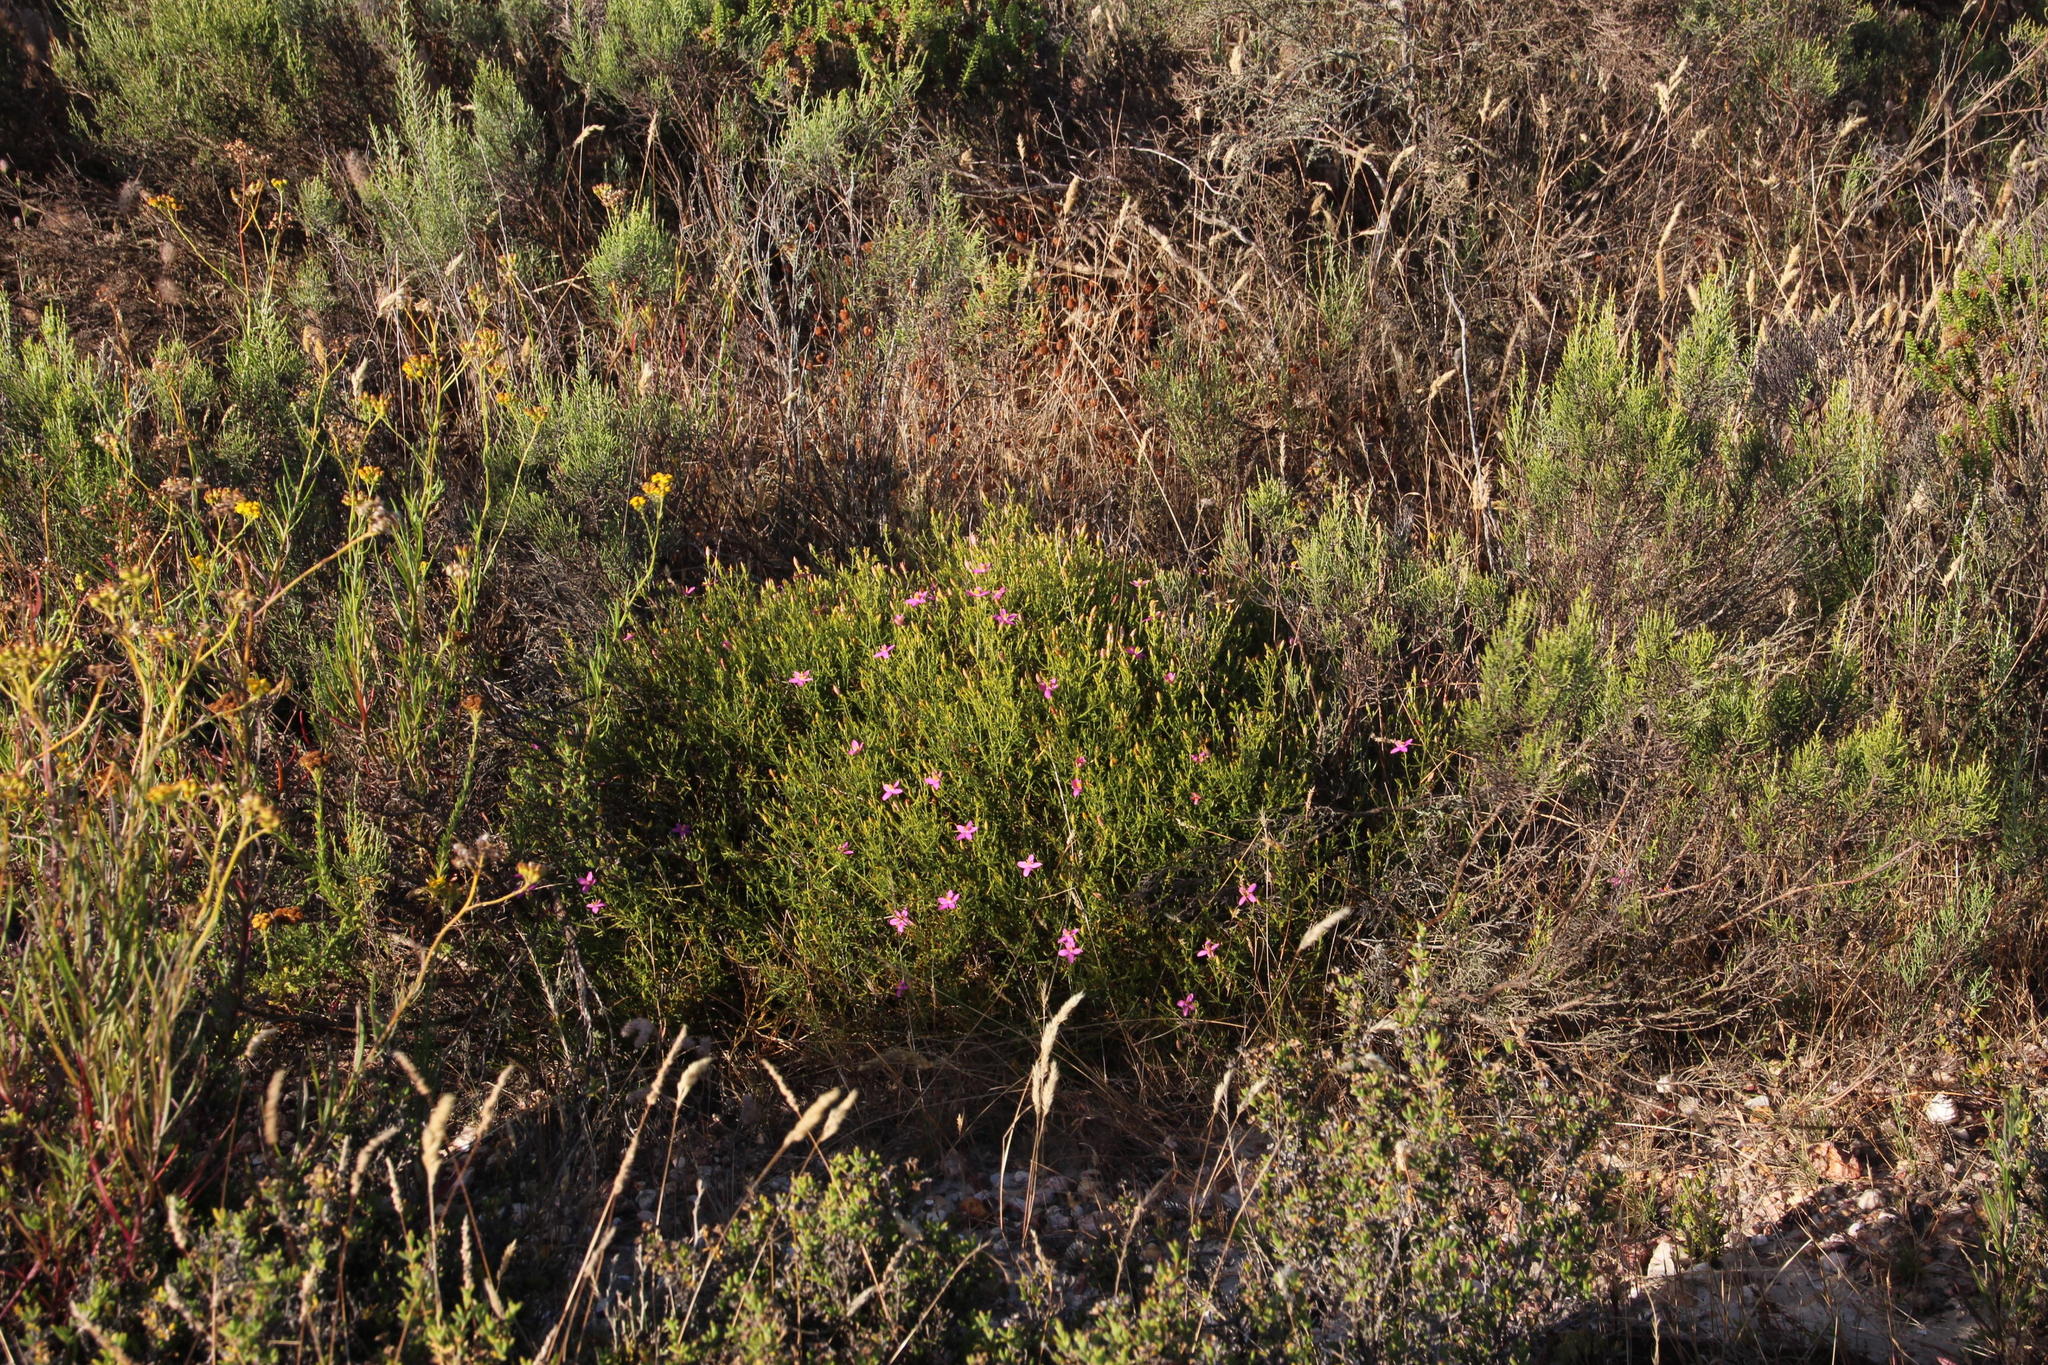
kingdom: Plantae
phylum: Tracheophyta
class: Magnoliopsida
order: Gentianales
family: Gentianaceae
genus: Chironia
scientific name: Chironia baccifera
